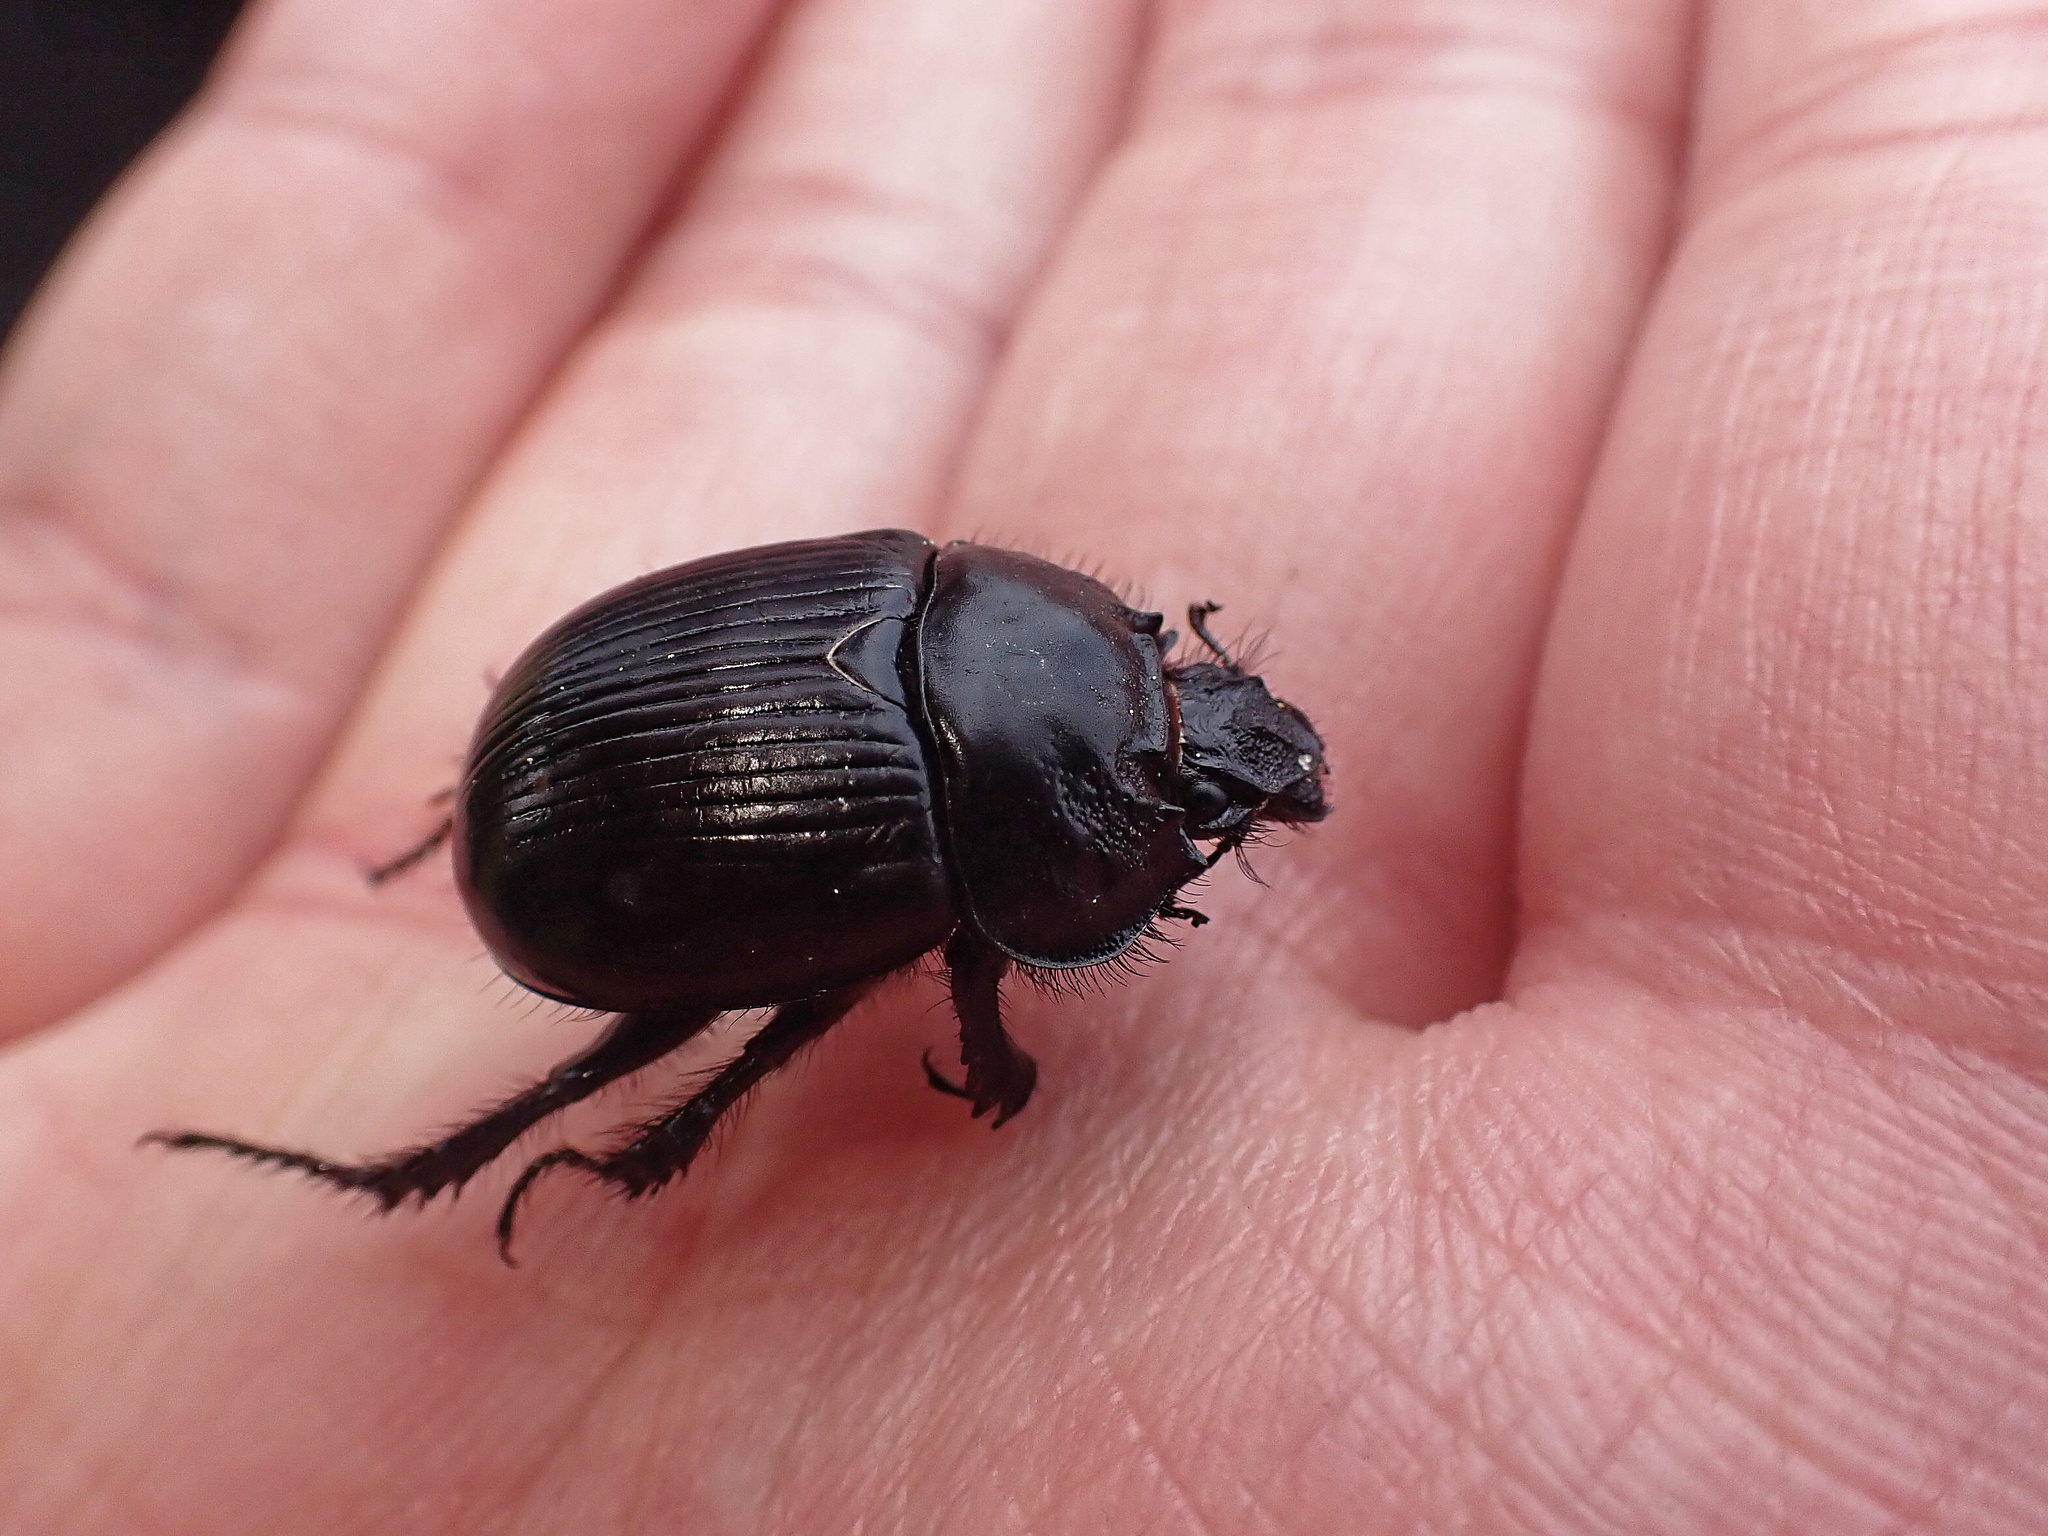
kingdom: Animalia
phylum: Arthropoda
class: Insecta
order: Coleoptera
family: Geotrupidae
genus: Typhaeus
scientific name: Typhaeus typhoeus
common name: Minotaur beetle
